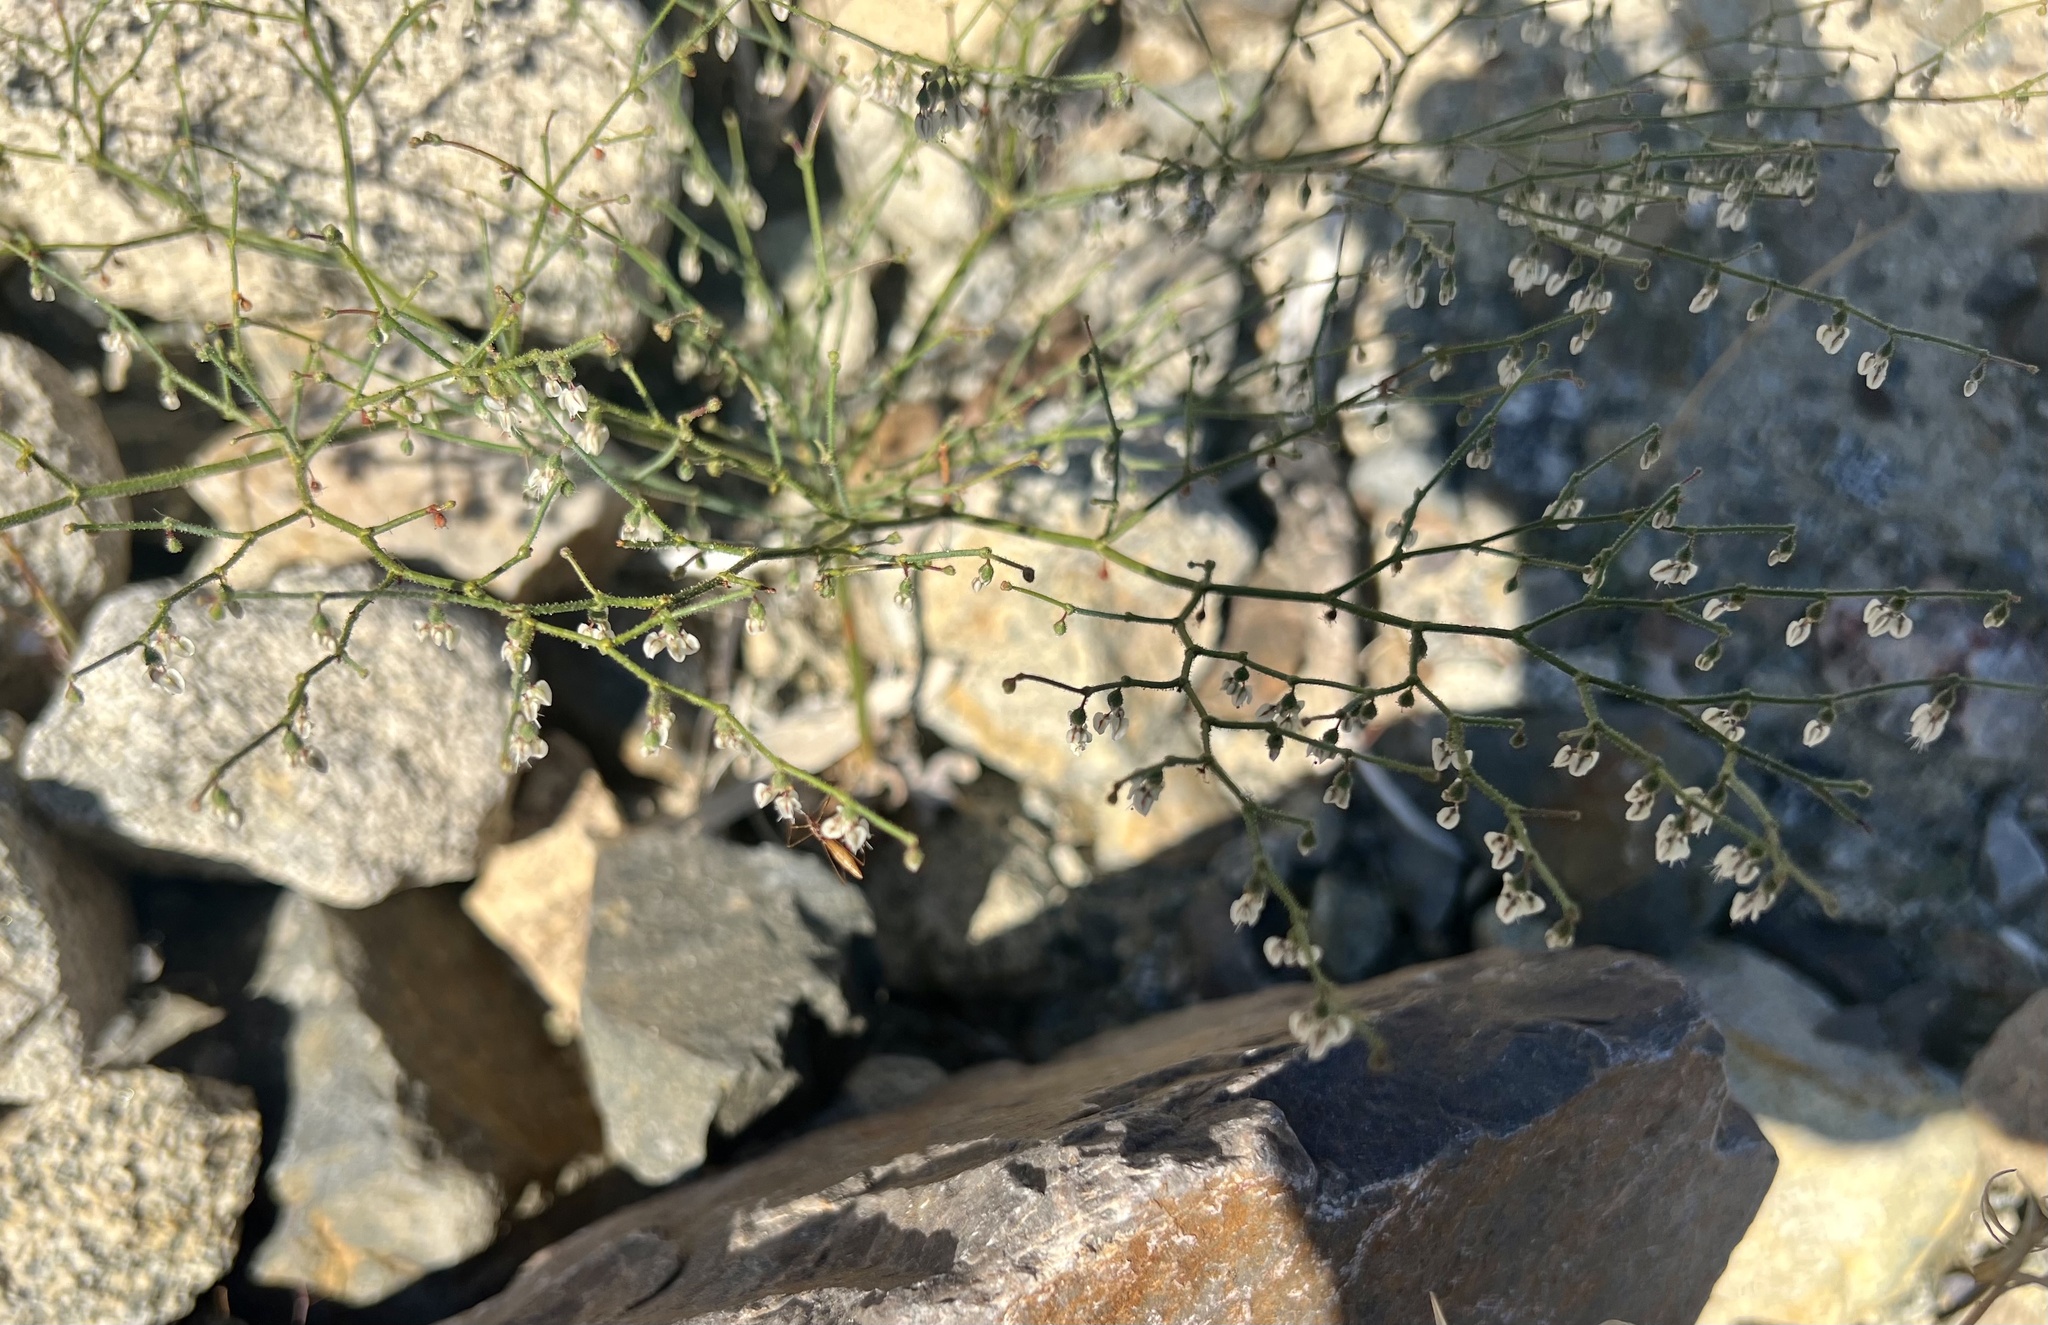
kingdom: Plantae
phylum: Tracheophyta
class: Magnoliopsida
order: Caryophyllales
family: Polygonaceae
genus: Eriogonum
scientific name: Eriogonum brachypodum
